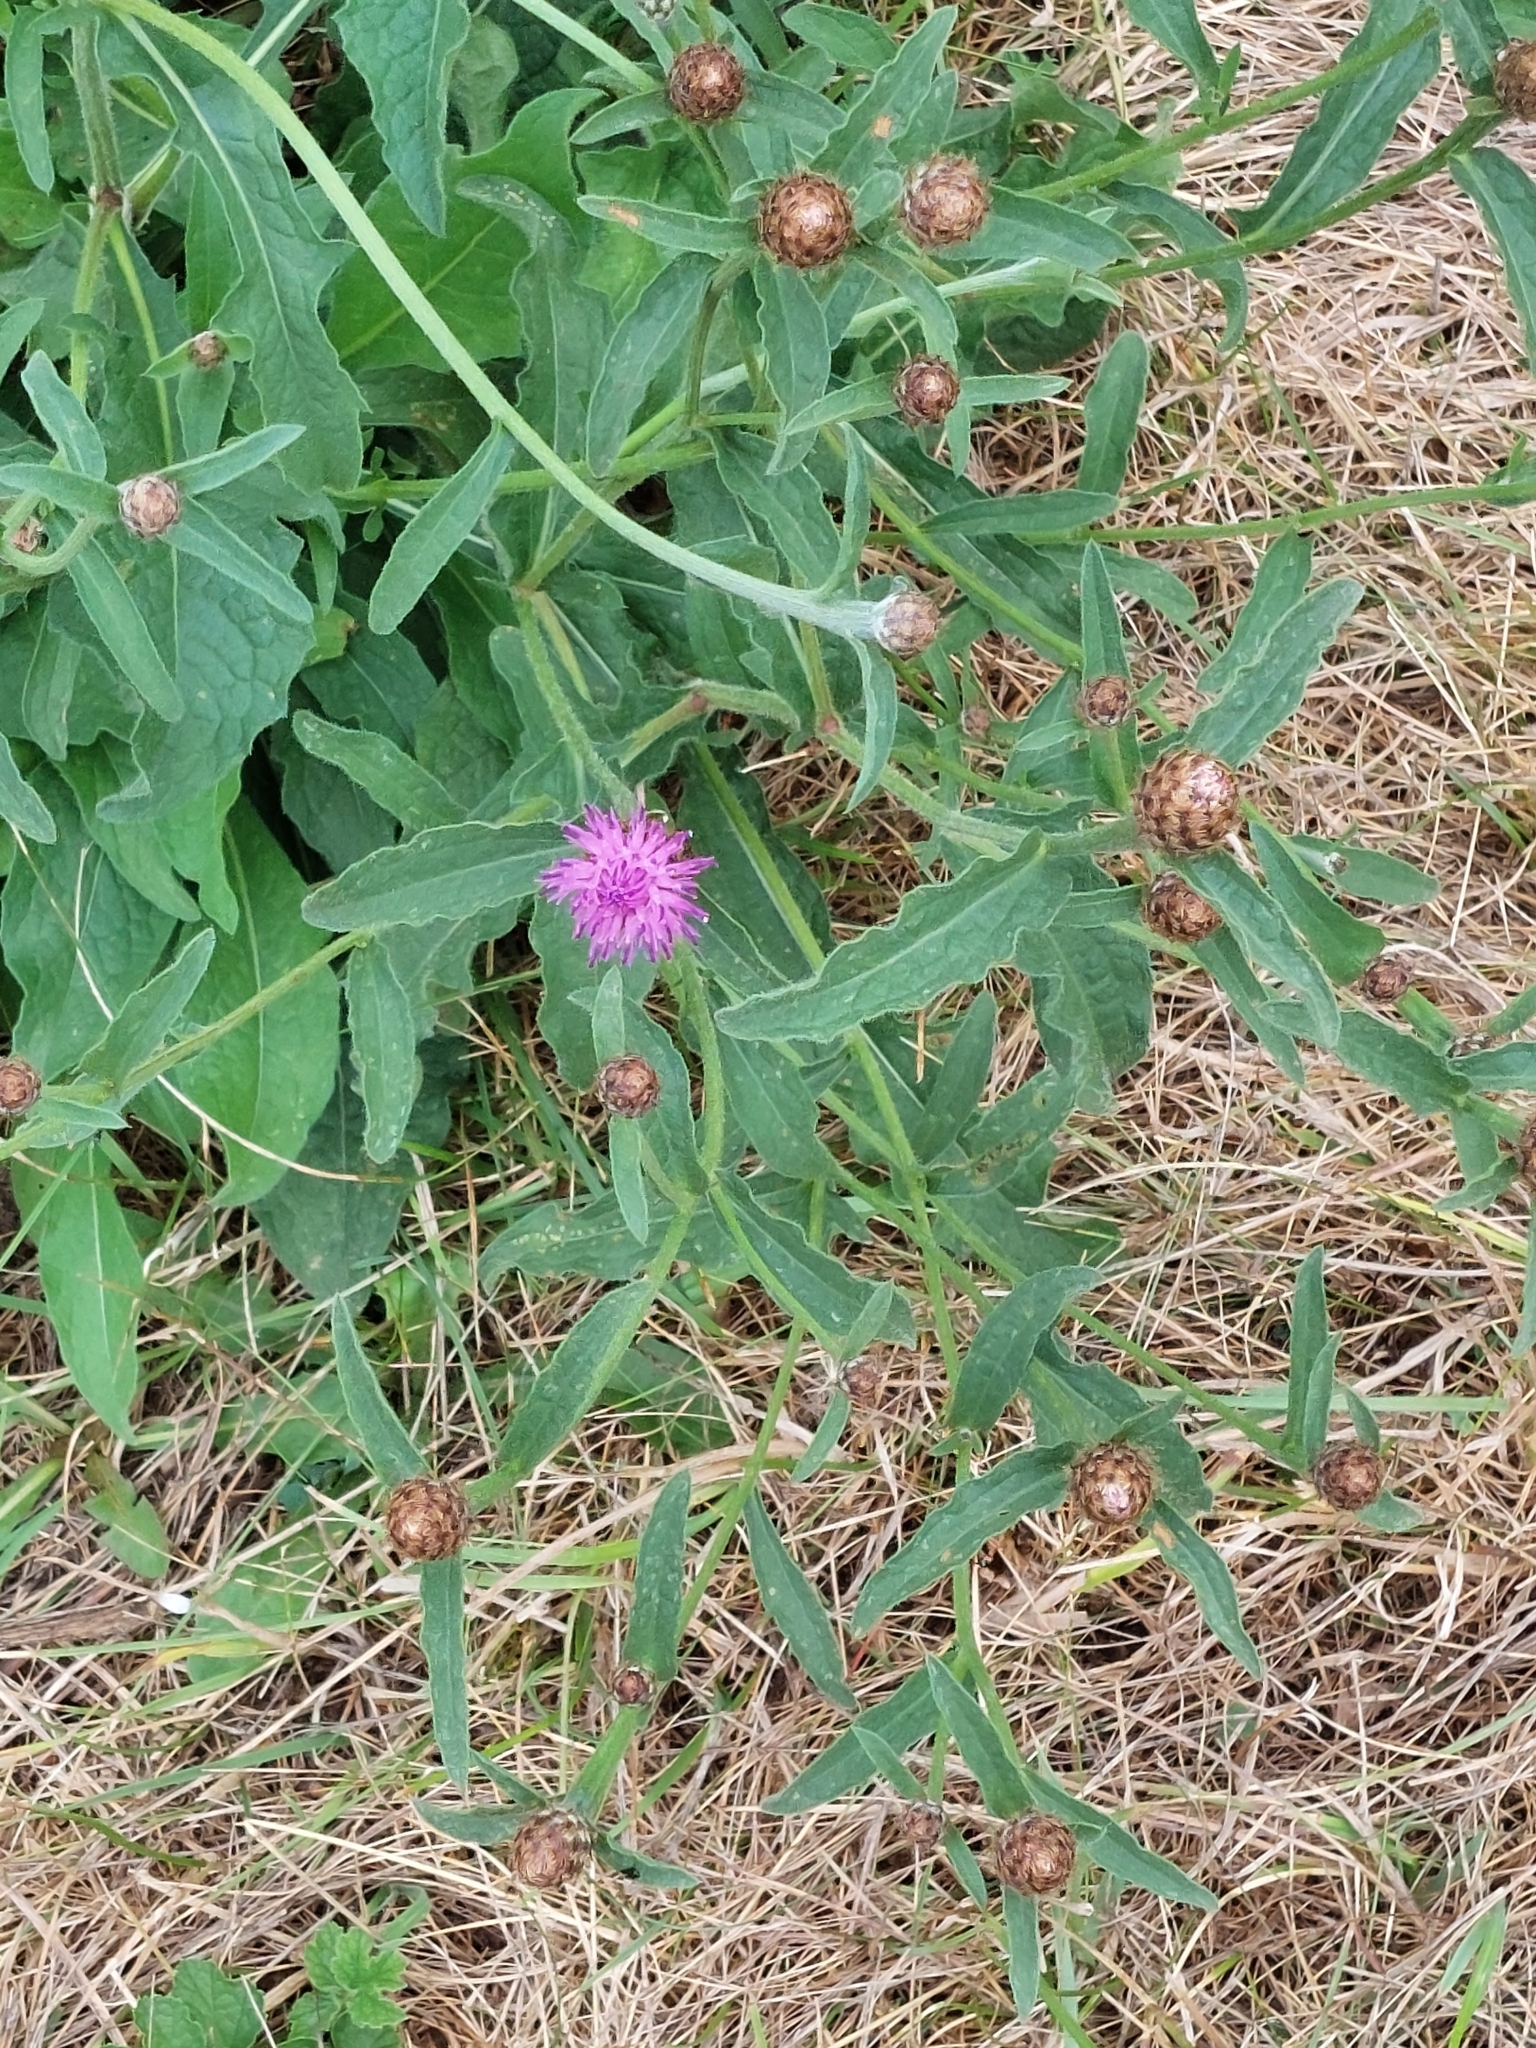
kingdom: Plantae
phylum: Tracheophyta
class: Magnoliopsida
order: Asterales
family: Asteraceae
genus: Centaurea
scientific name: Centaurea nigra
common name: Lesser knapweed
